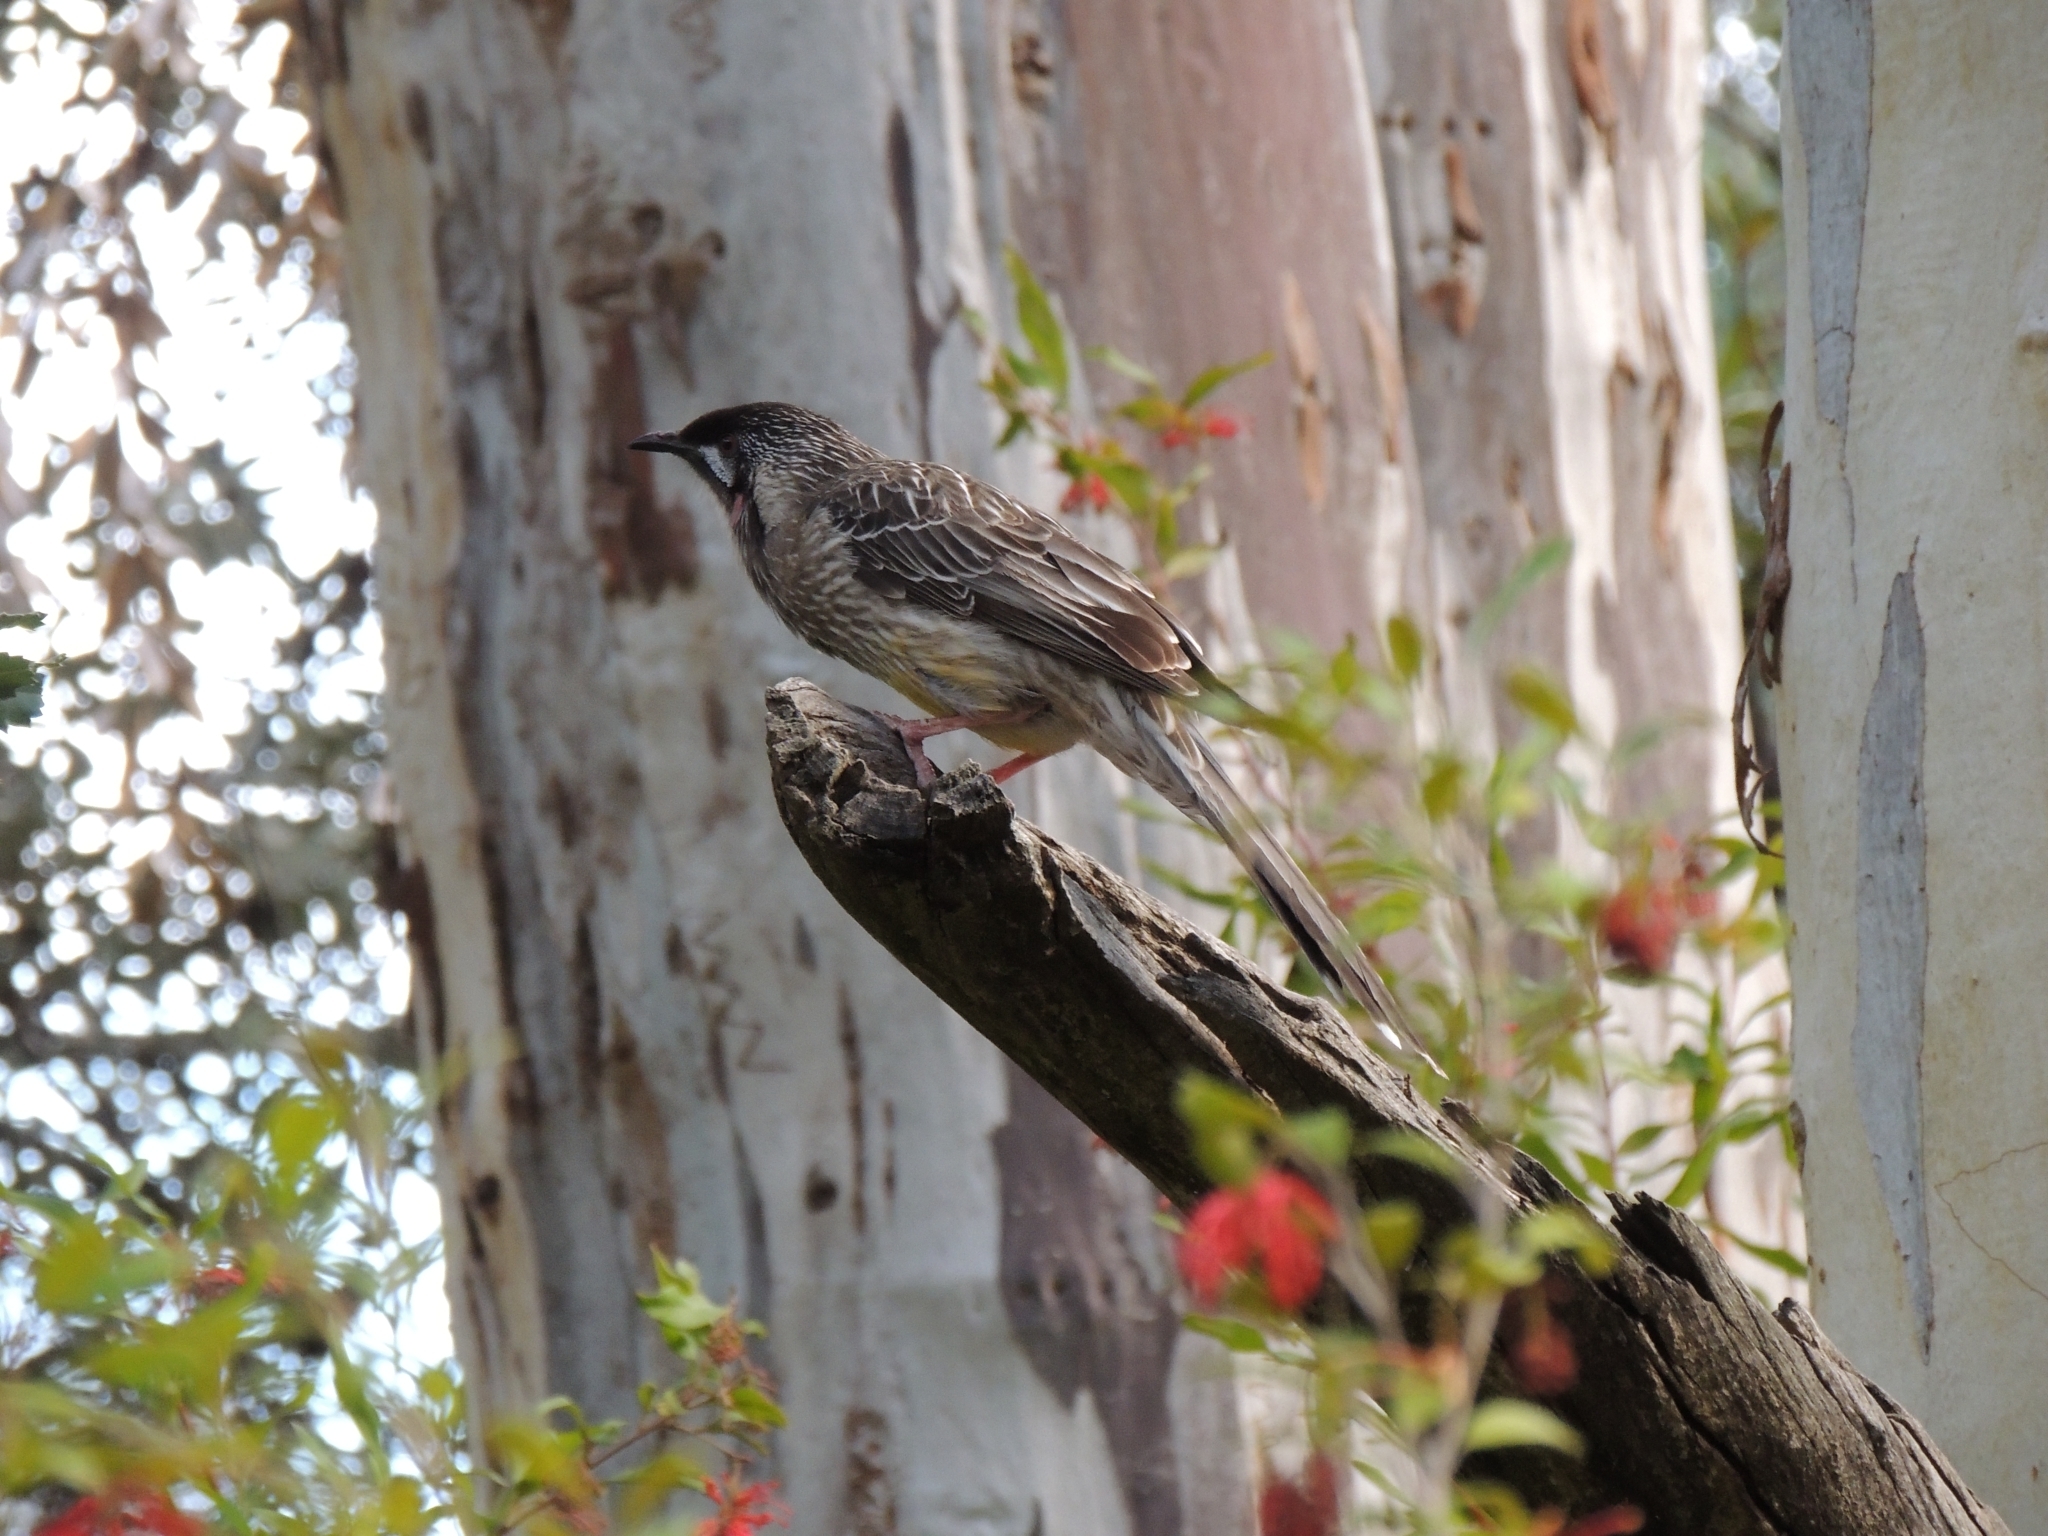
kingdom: Animalia
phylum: Chordata
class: Aves
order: Passeriformes
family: Meliphagidae
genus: Anthochaera
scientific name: Anthochaera carunculata
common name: Red wattlebird
